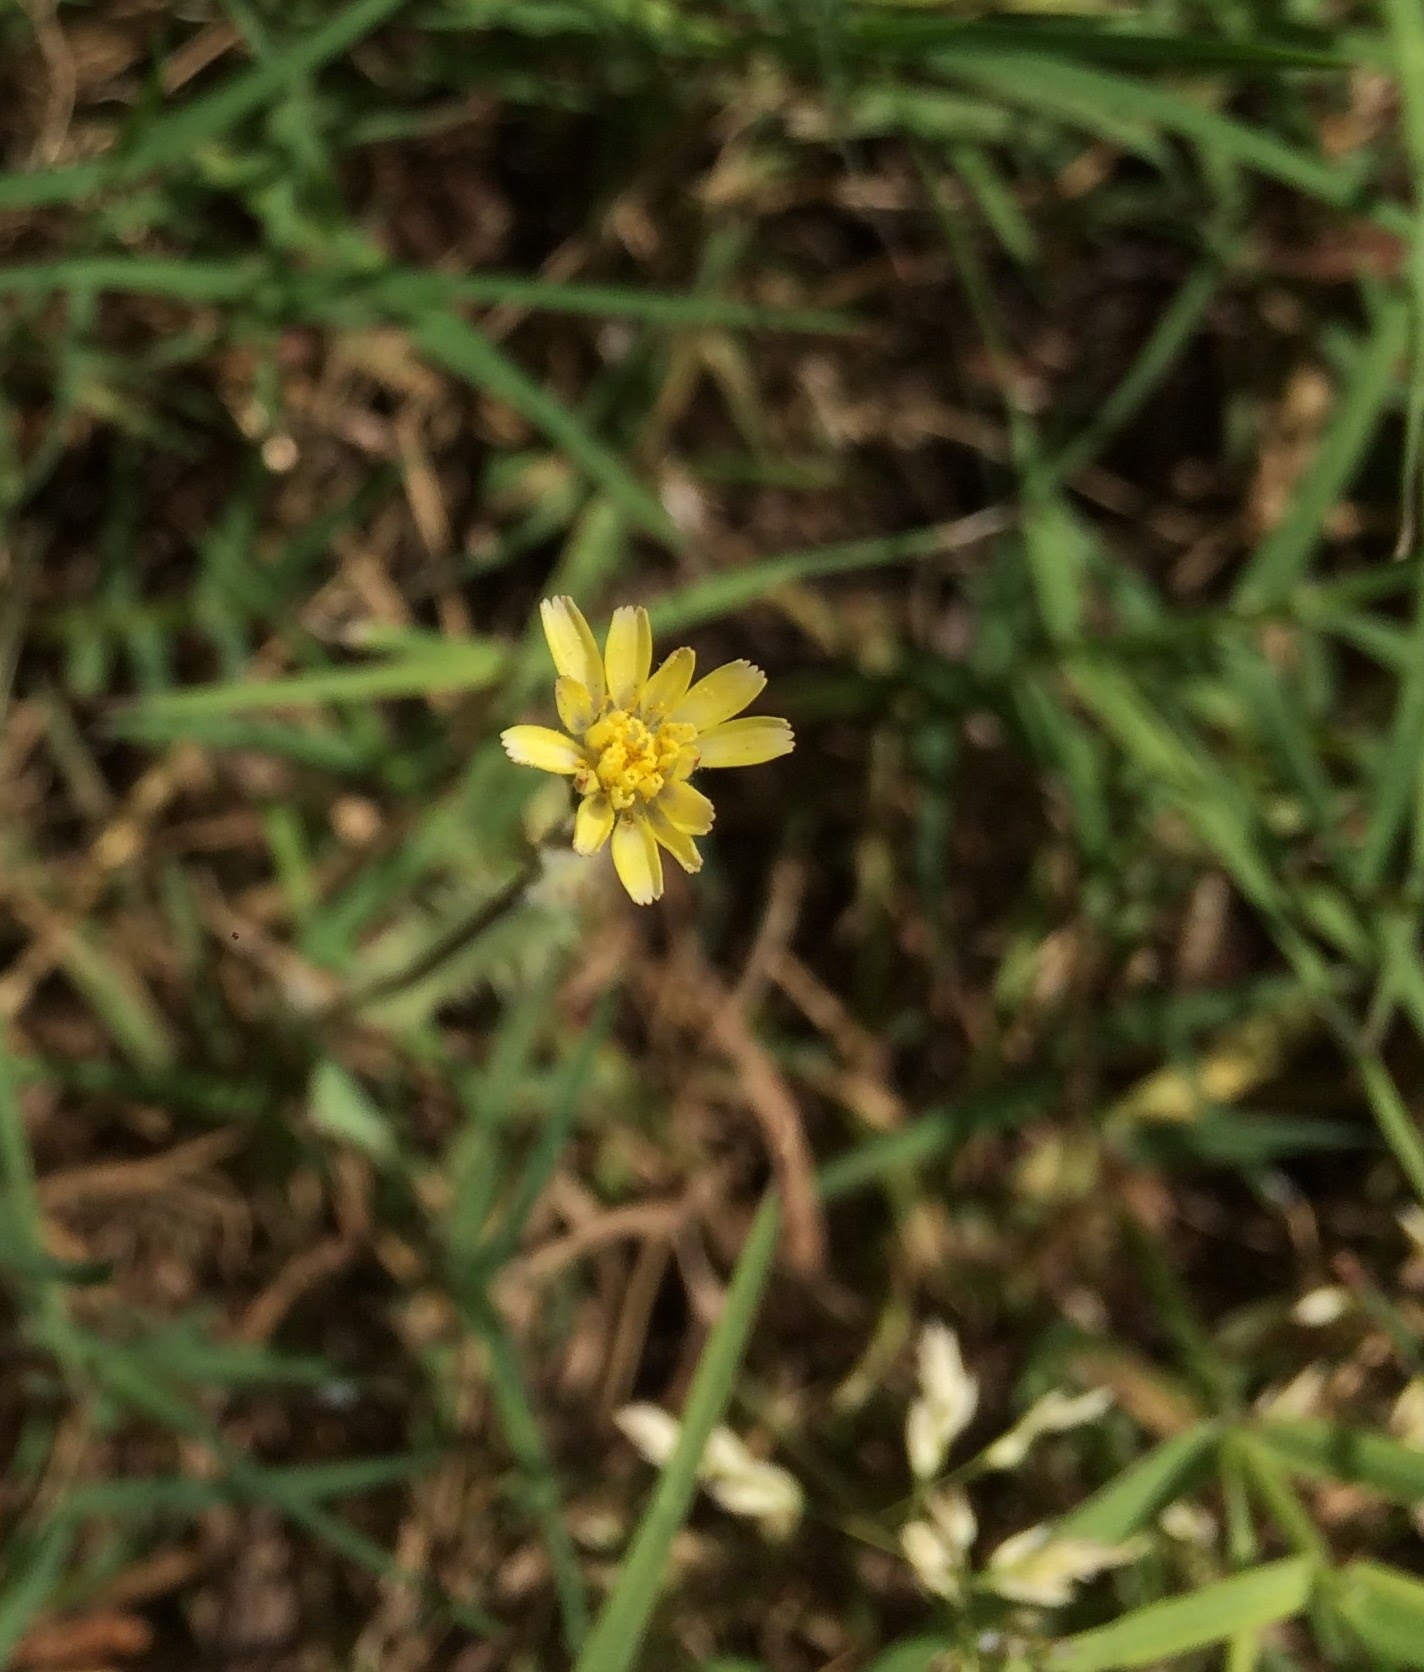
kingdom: Plantae
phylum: Tracheophyta
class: Magnoliopsida
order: Asterales
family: Asteraceae
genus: Lactuca
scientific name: Lactuca serriola
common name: Prickly lettuce
